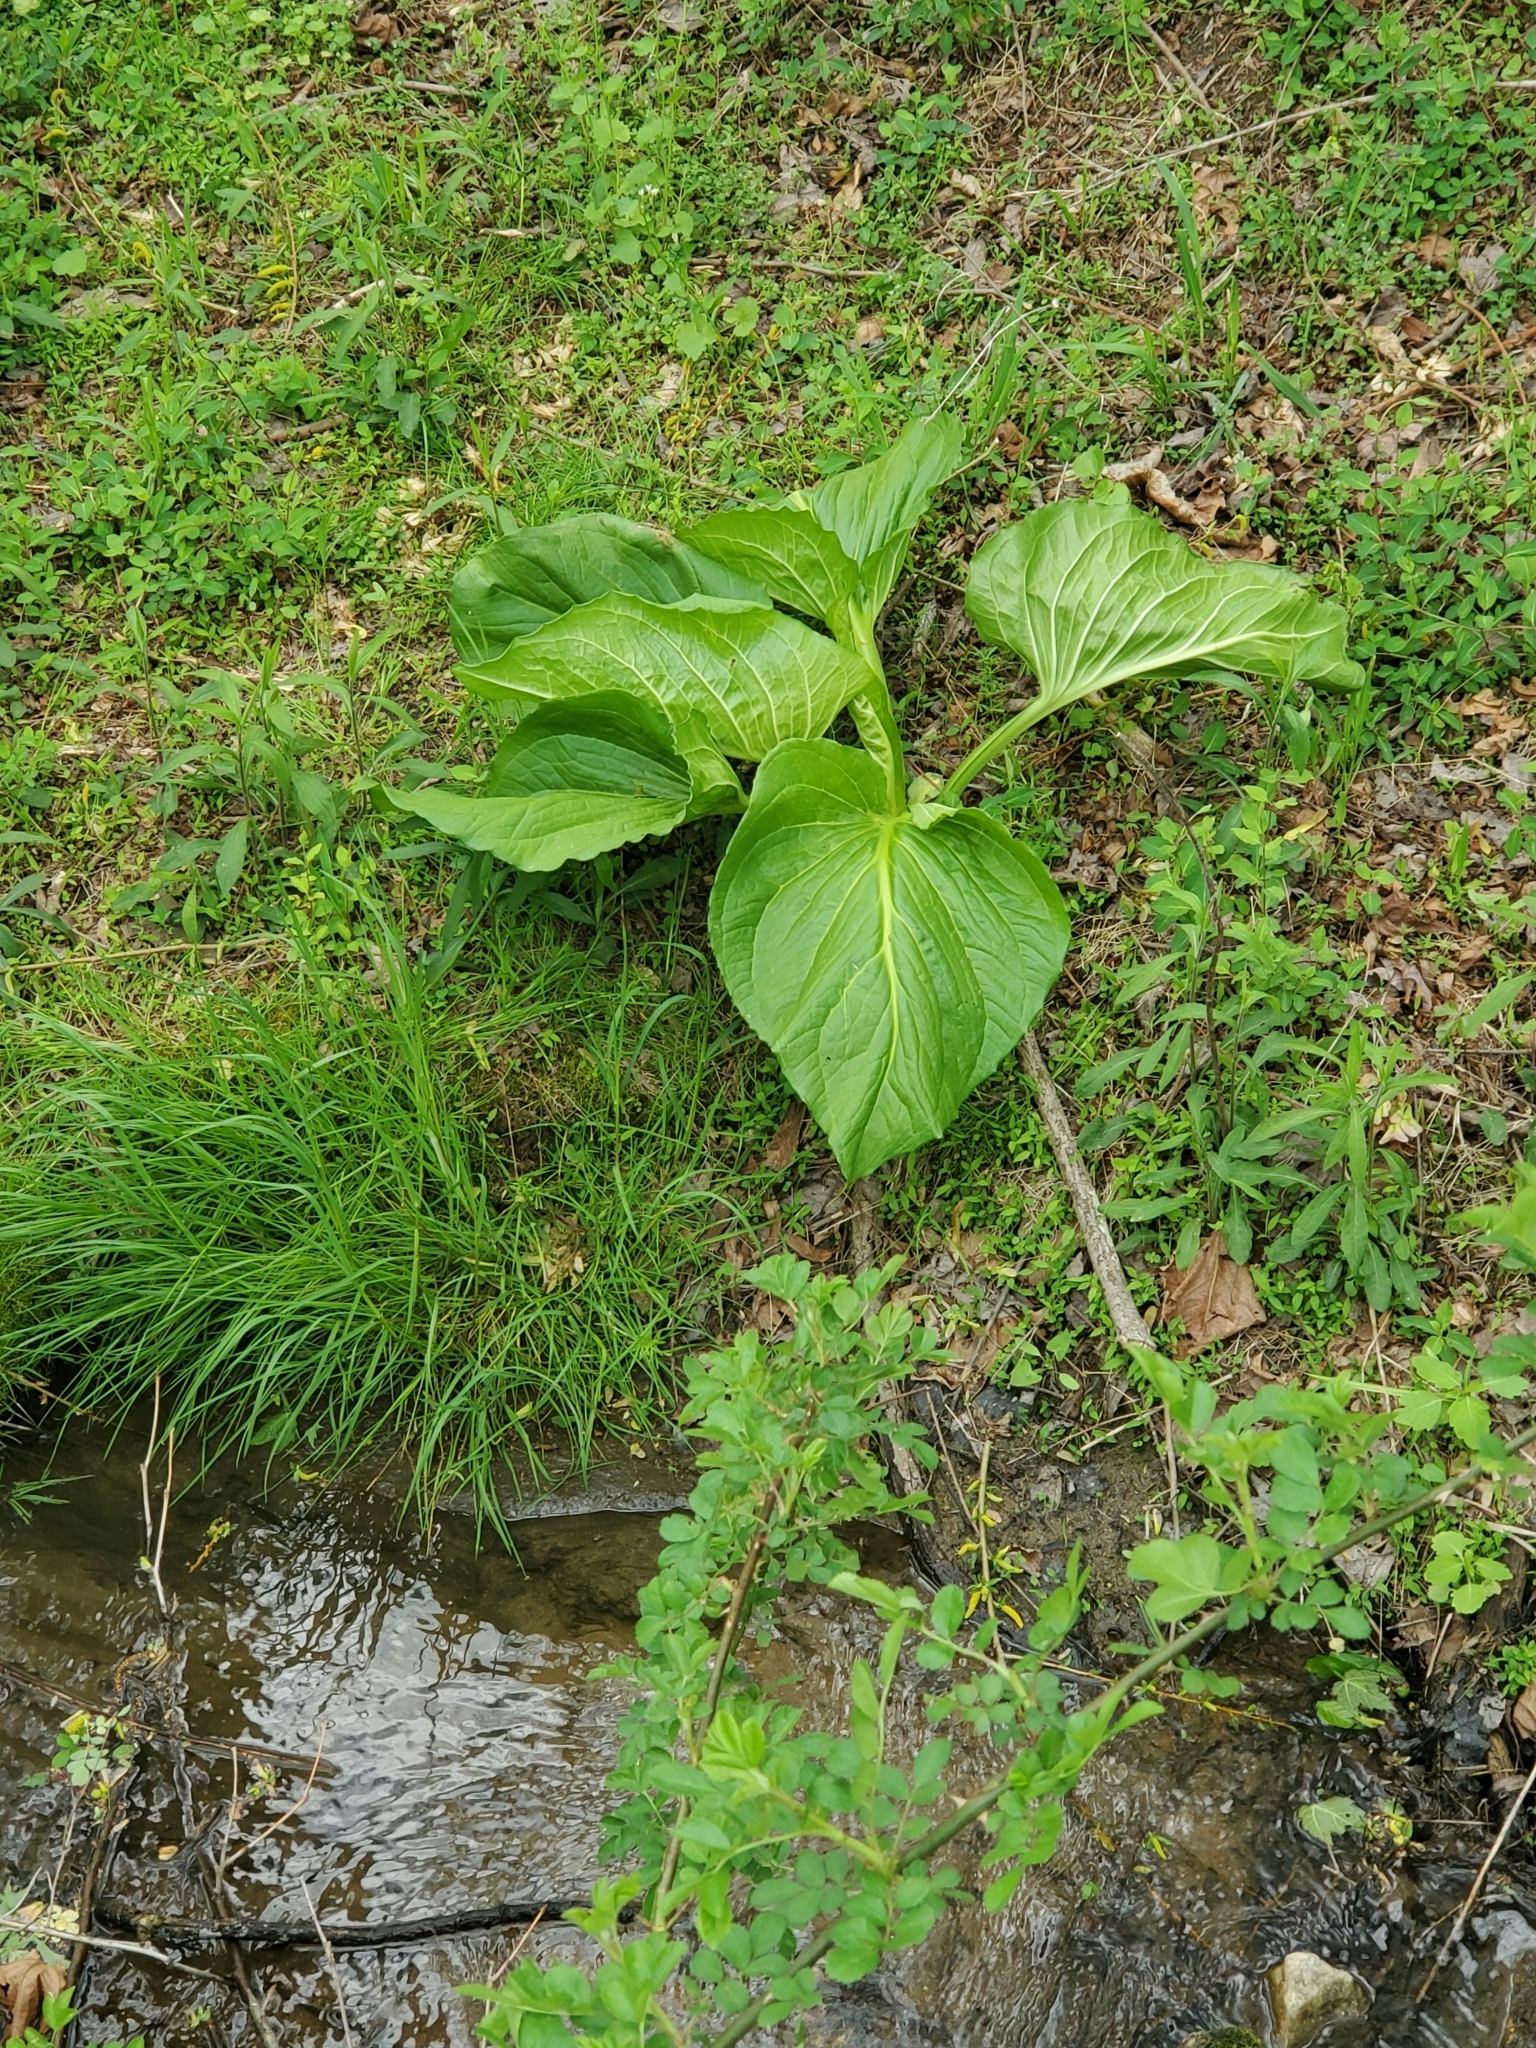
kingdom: Plantae
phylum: Tracheophyta
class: Liliopsida
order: Alismatales
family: Araceae
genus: Symplocarpus
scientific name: Symplocarpus foetidus
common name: Eastern skunk cabbage
